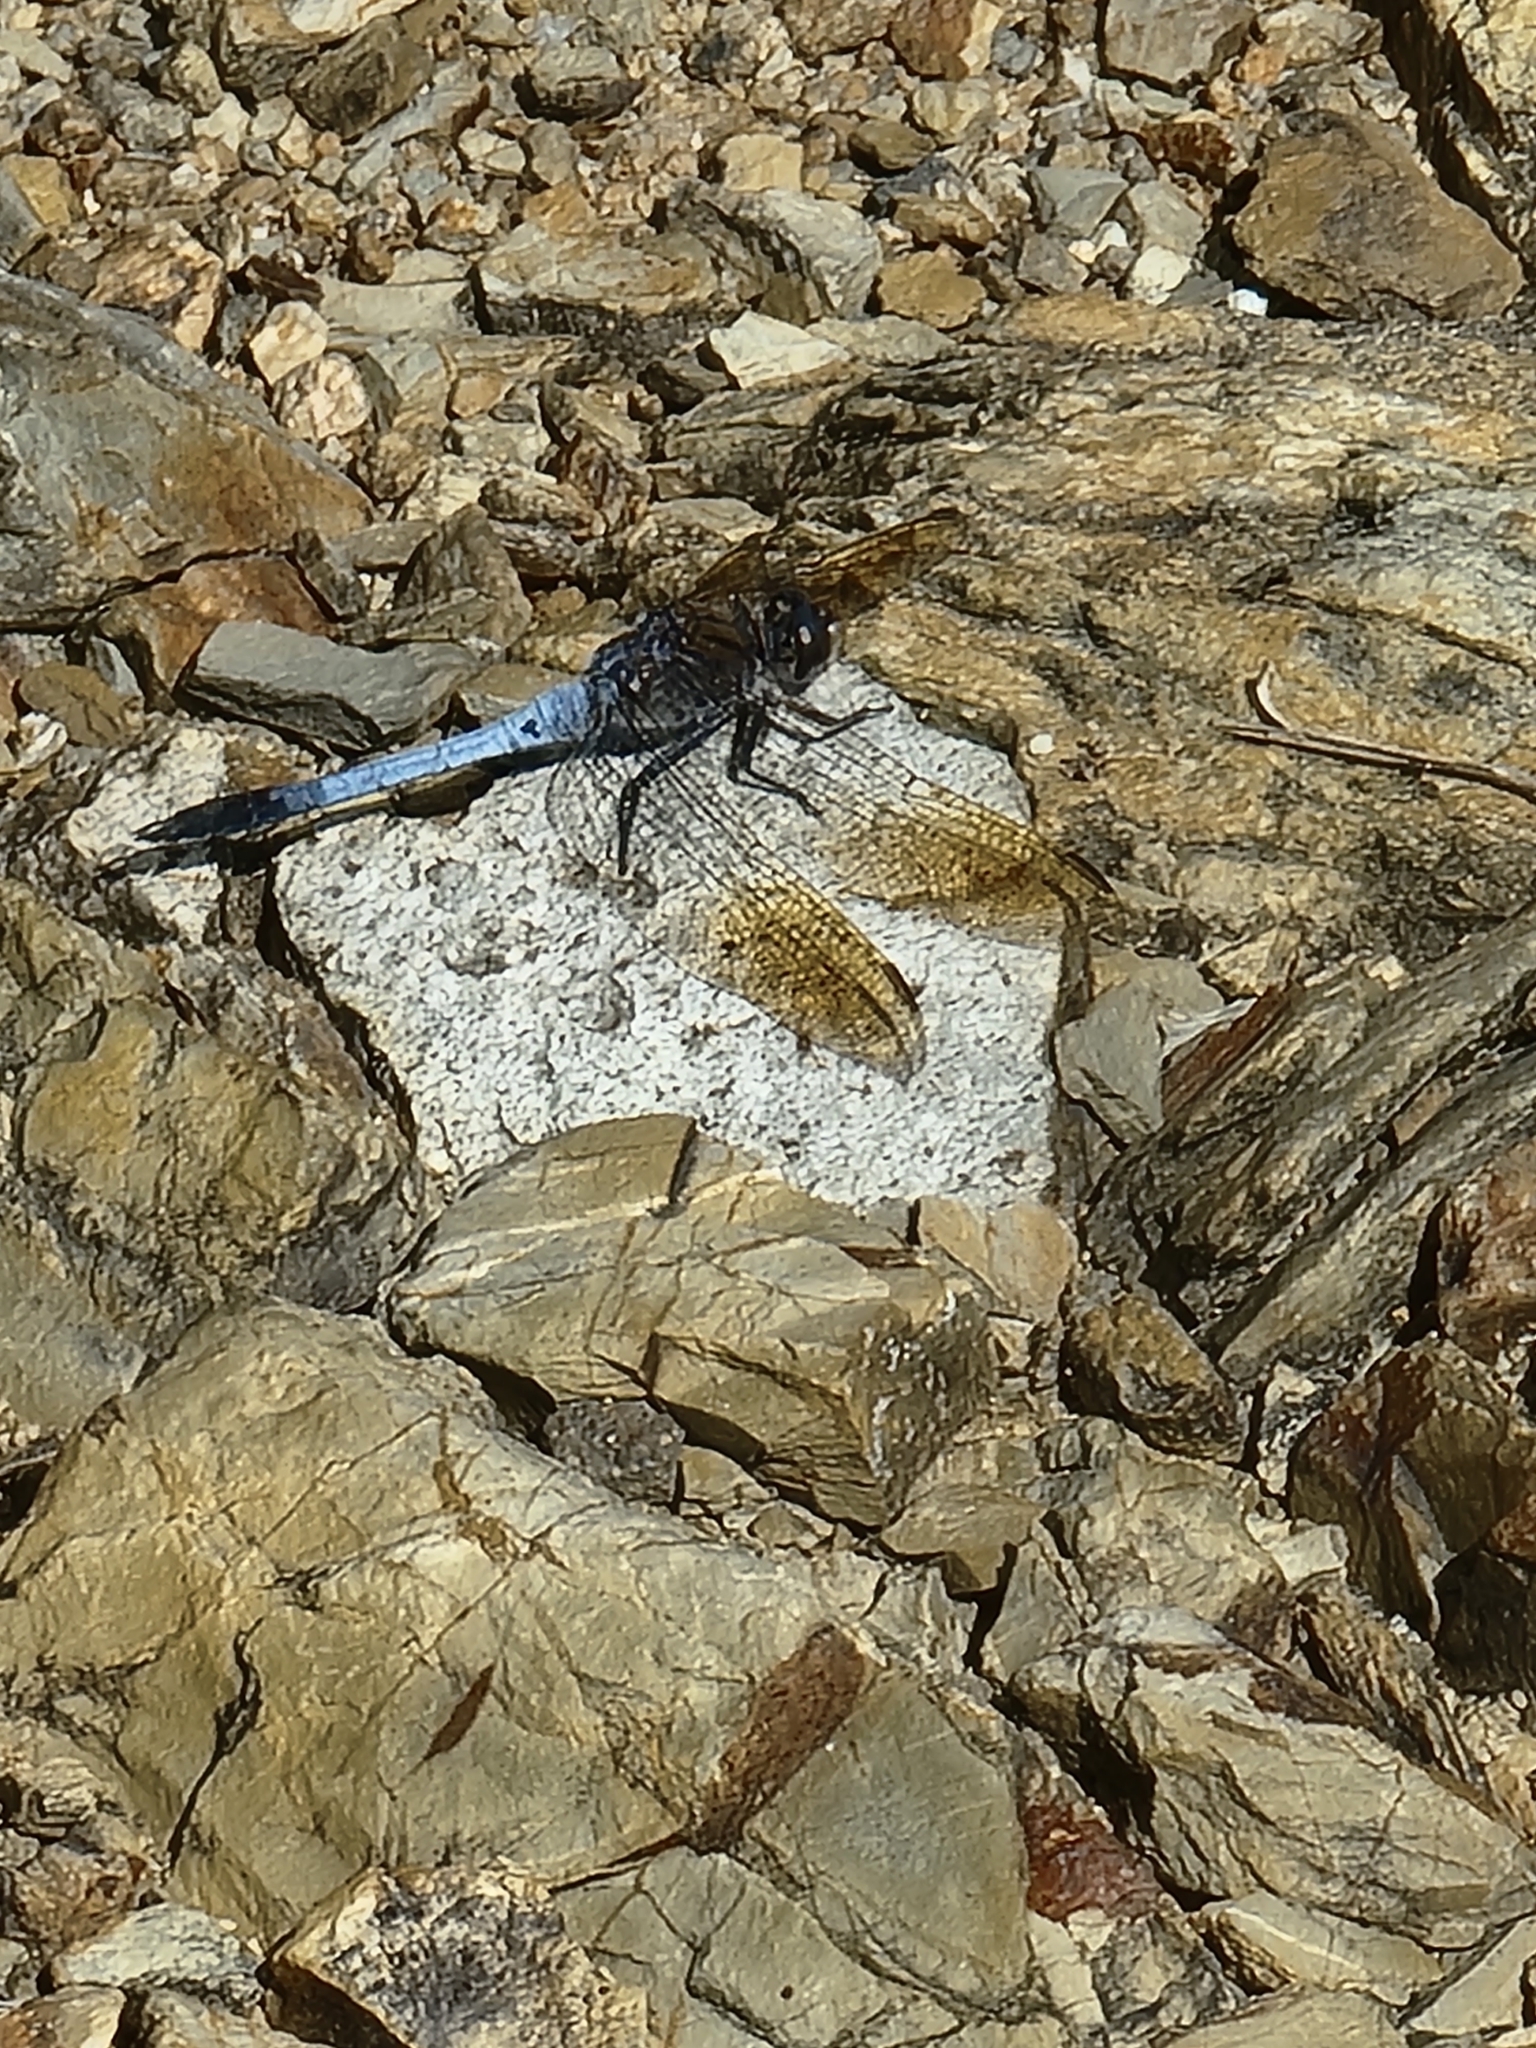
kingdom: Animalia
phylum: Arthropoda
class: Insecta
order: Odonata
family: Libellulidae
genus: Orthetrum
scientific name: Orthetrum caledonicum
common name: Blue skimmer
